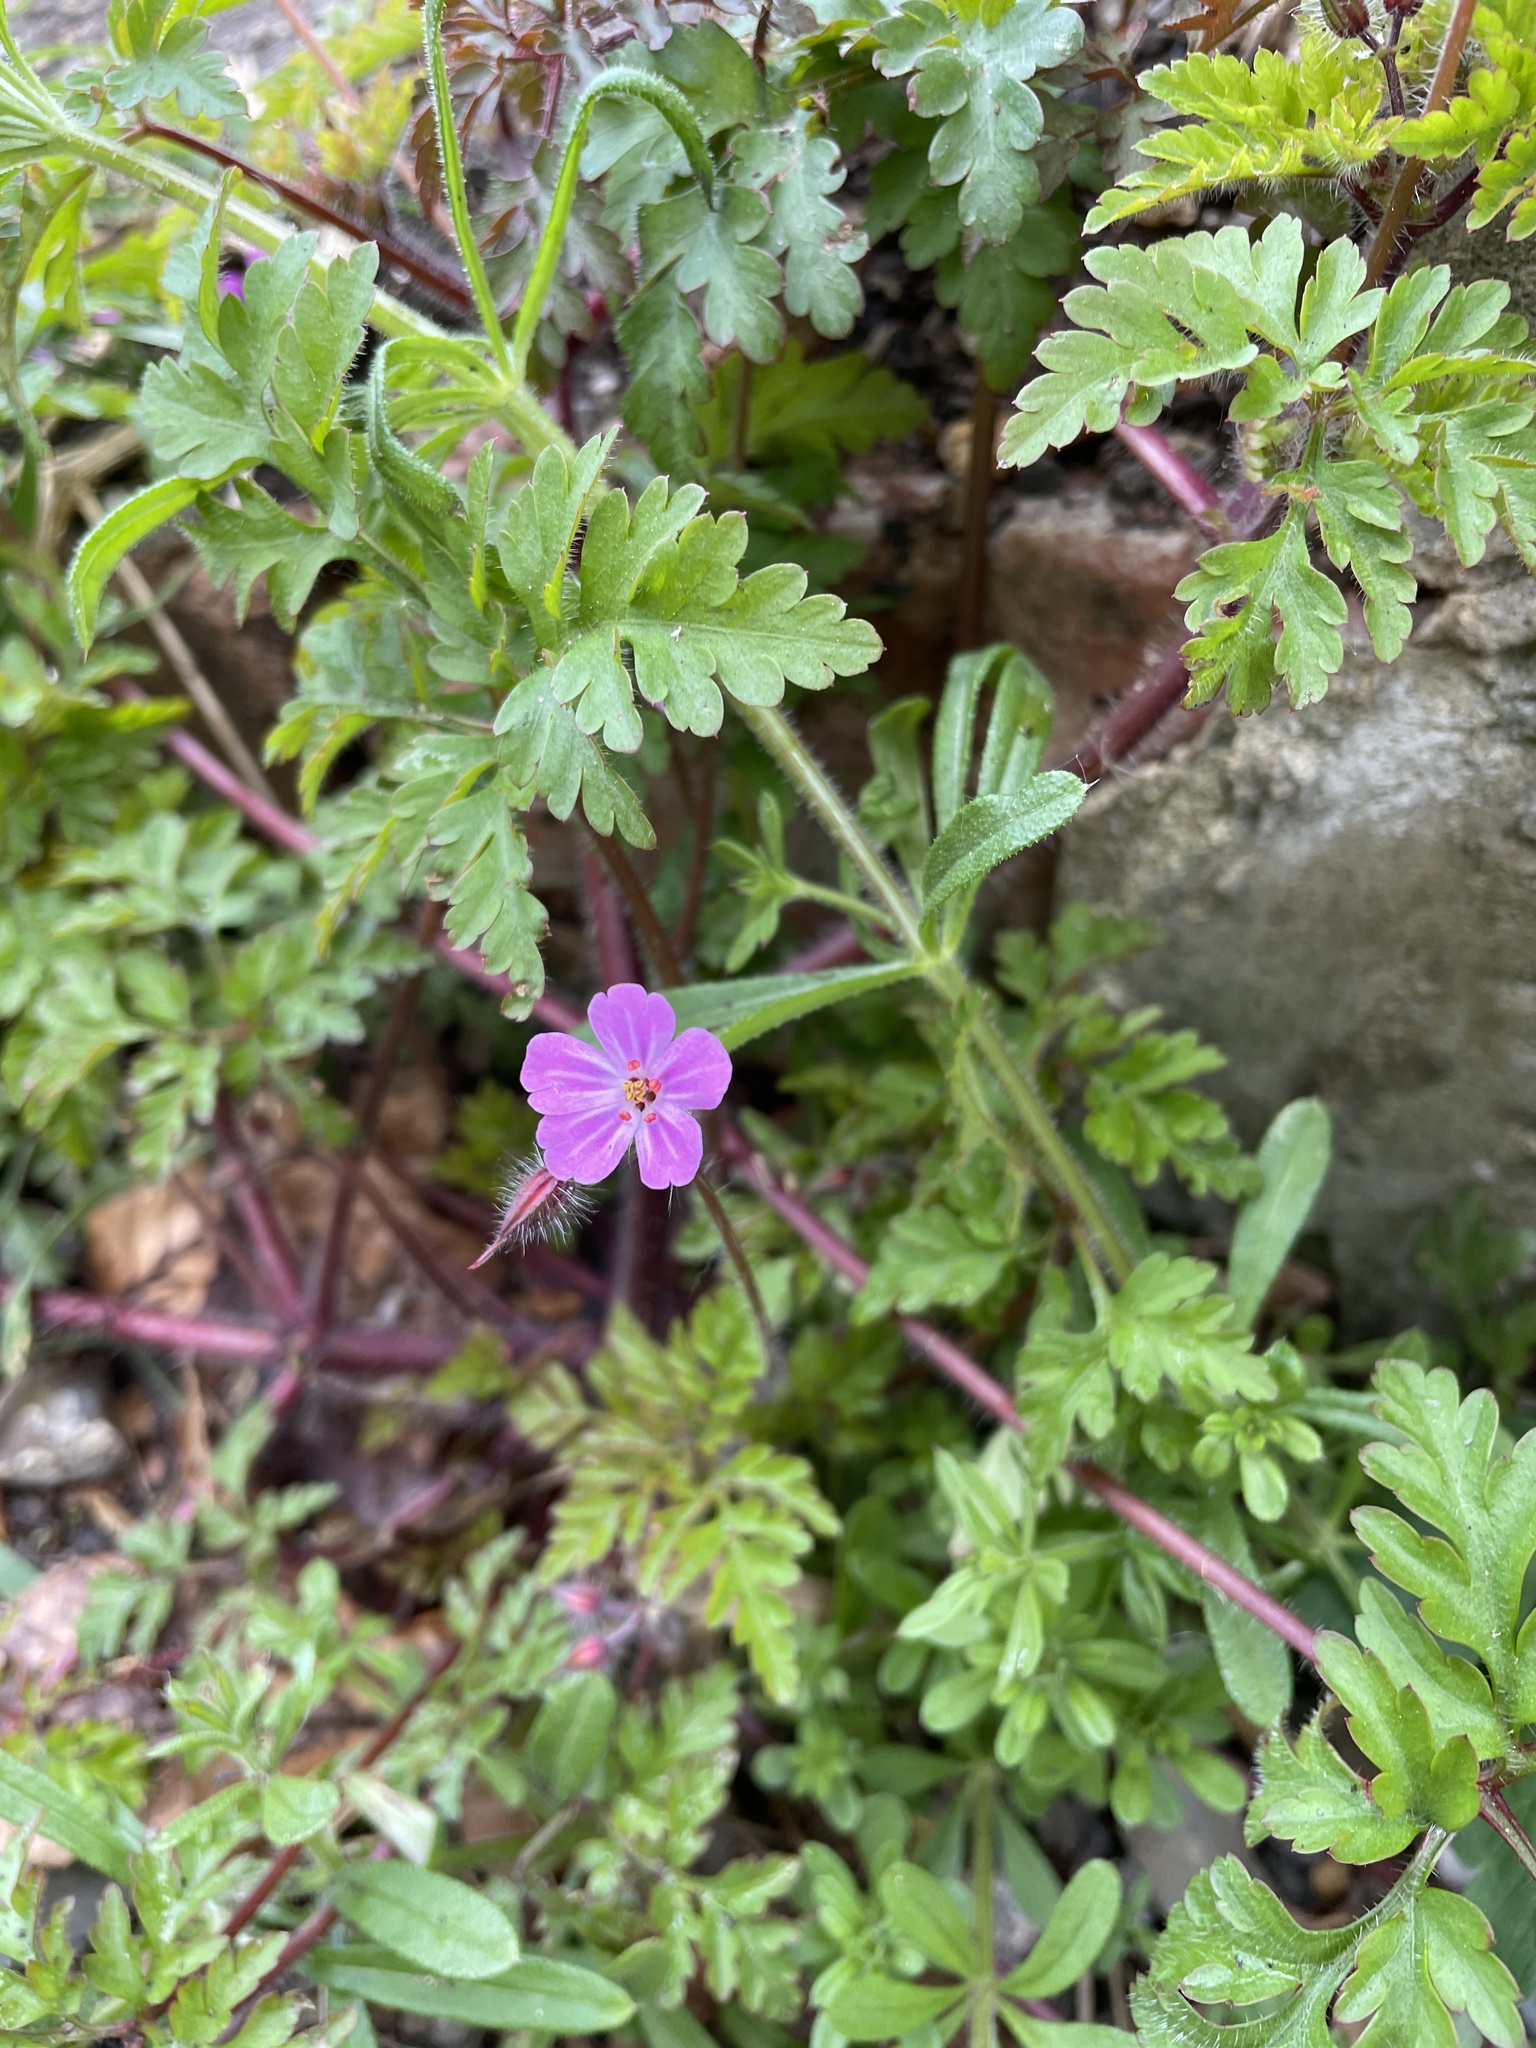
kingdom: Plantae
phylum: Tracheophyta
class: Magnoliopsida
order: Geraniales
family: Geraniaceae
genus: Geranium
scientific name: Geranium robertianum
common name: Herb-robert
